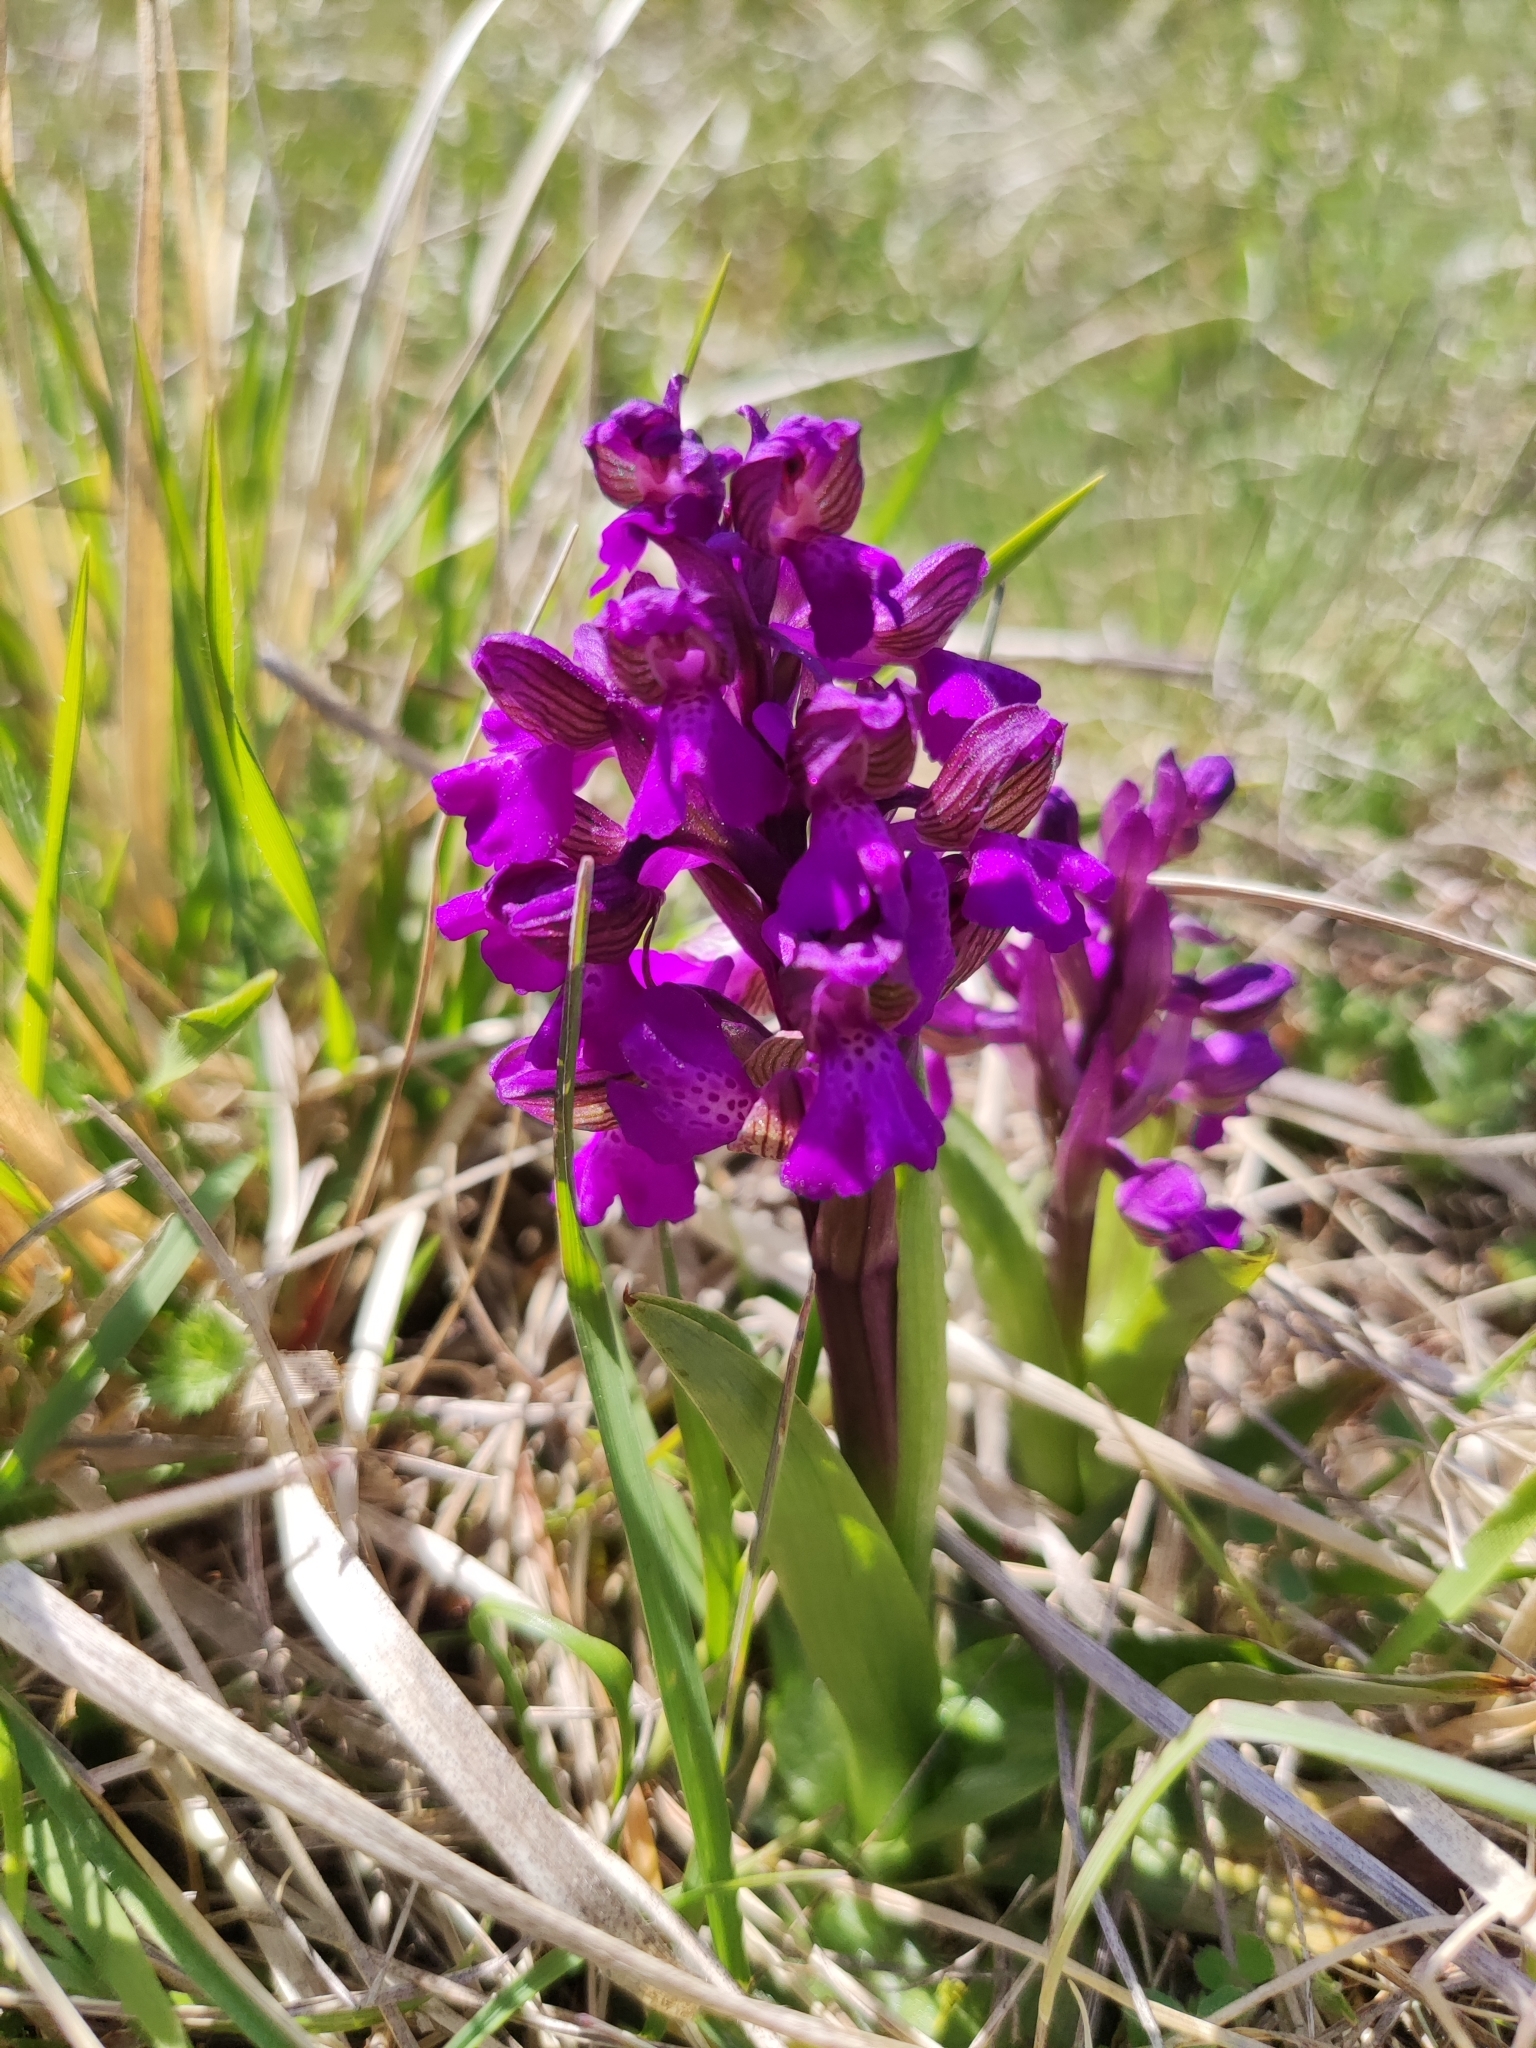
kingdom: Plantae
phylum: Tracheophyta
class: Liliopsida
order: Asparagales
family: Orchidaceae
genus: Anacamptis
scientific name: Anacamptis morio
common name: Green-winged orchid
